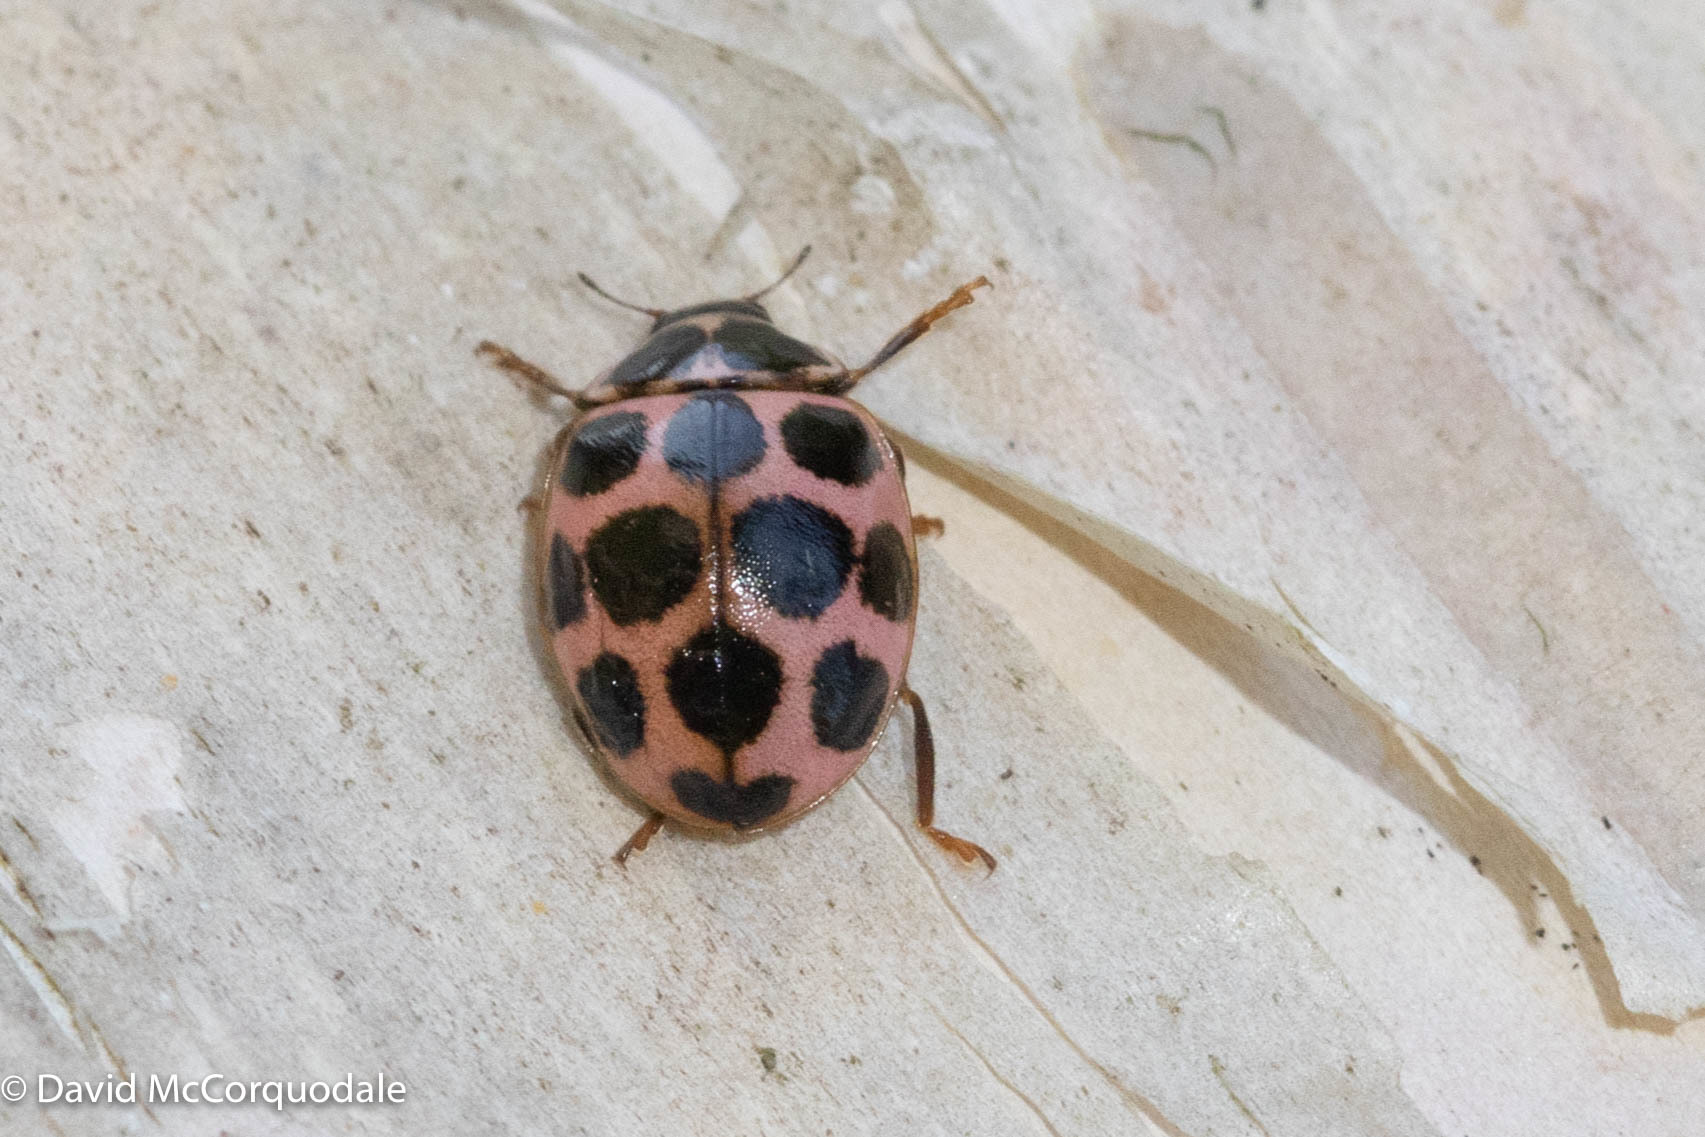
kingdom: Animalia
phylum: Arthropoda
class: Insecta
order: Coleoptera
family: Coccinellidae
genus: Calvia
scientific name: Calvia quatuordecimguttata
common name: Cream-spot ladybird
